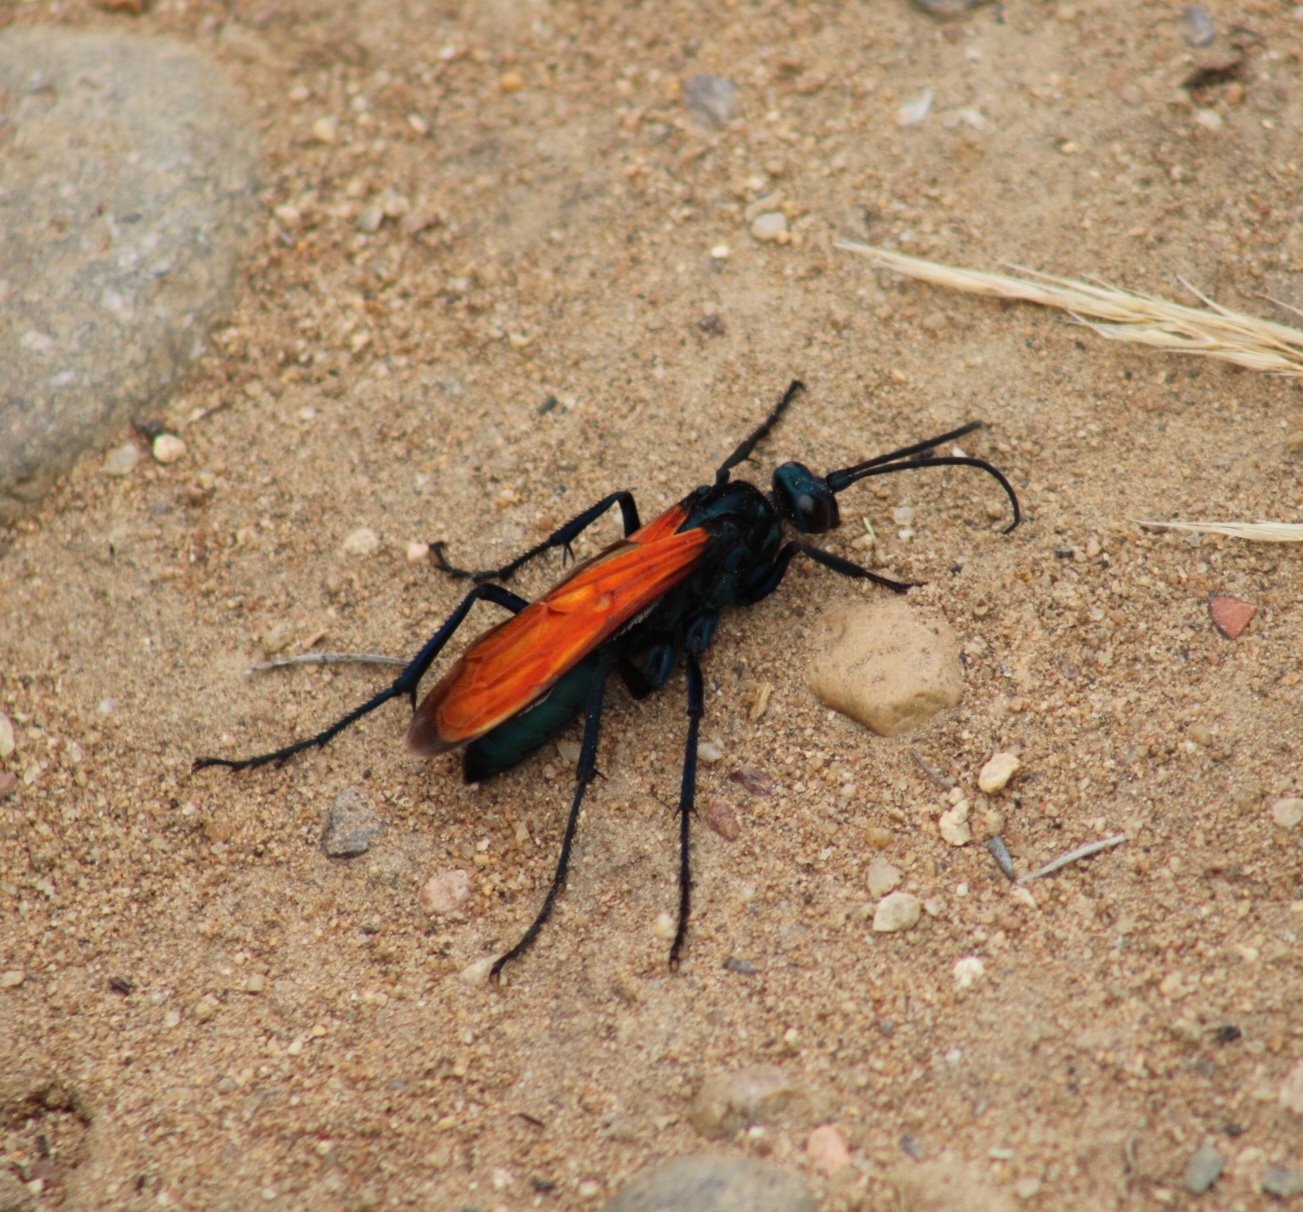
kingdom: Animalia
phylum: Arthropoda
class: Insecta
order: Hymenoptera
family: Pompilidae
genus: Pepsis
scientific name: Pepsis chrysothemis
